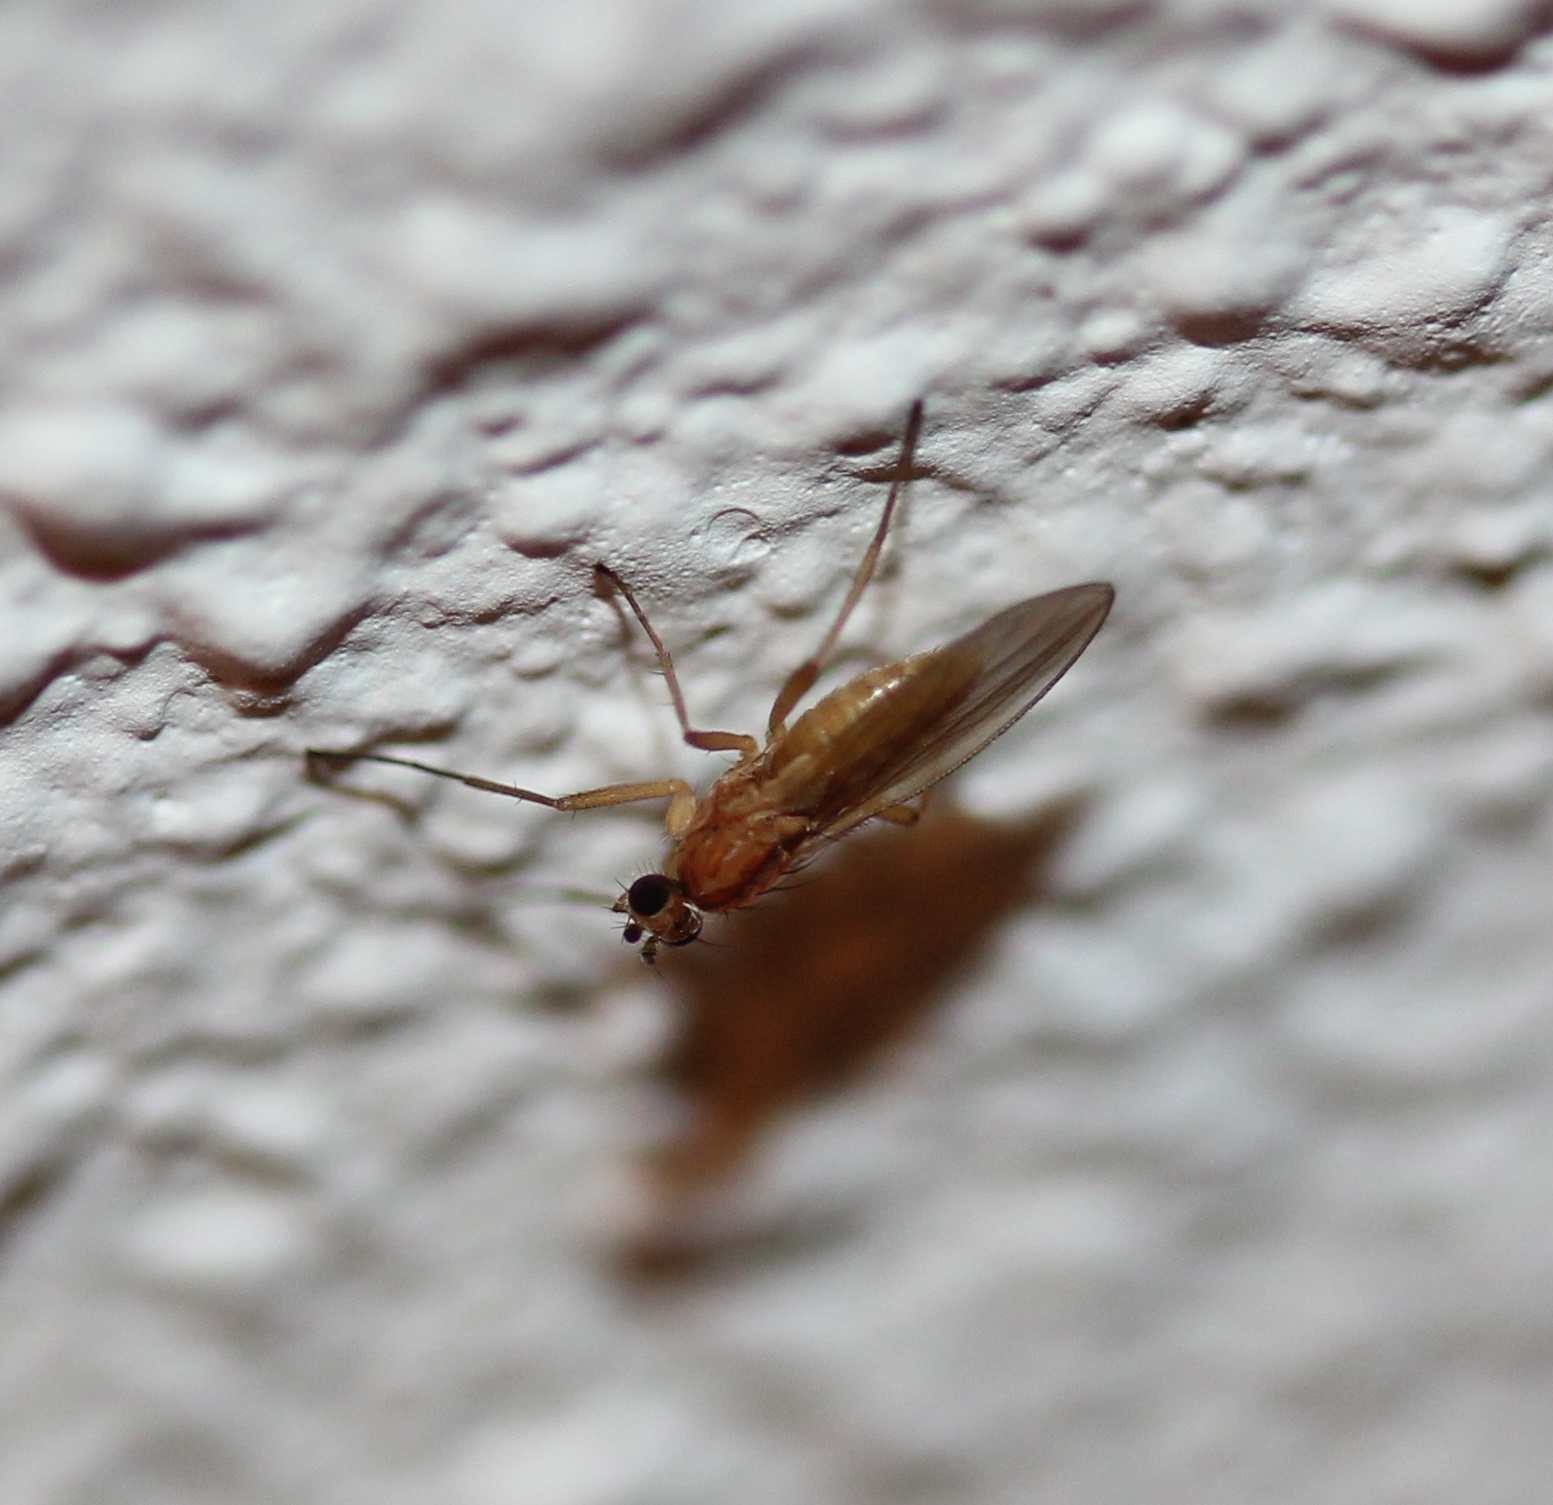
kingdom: Animalia
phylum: Arthropoda
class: Insecta
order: Diptera
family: Lonchopteridae
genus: Lonchoptera
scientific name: Lonchoptera bifurcata
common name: Spear-winged fly
